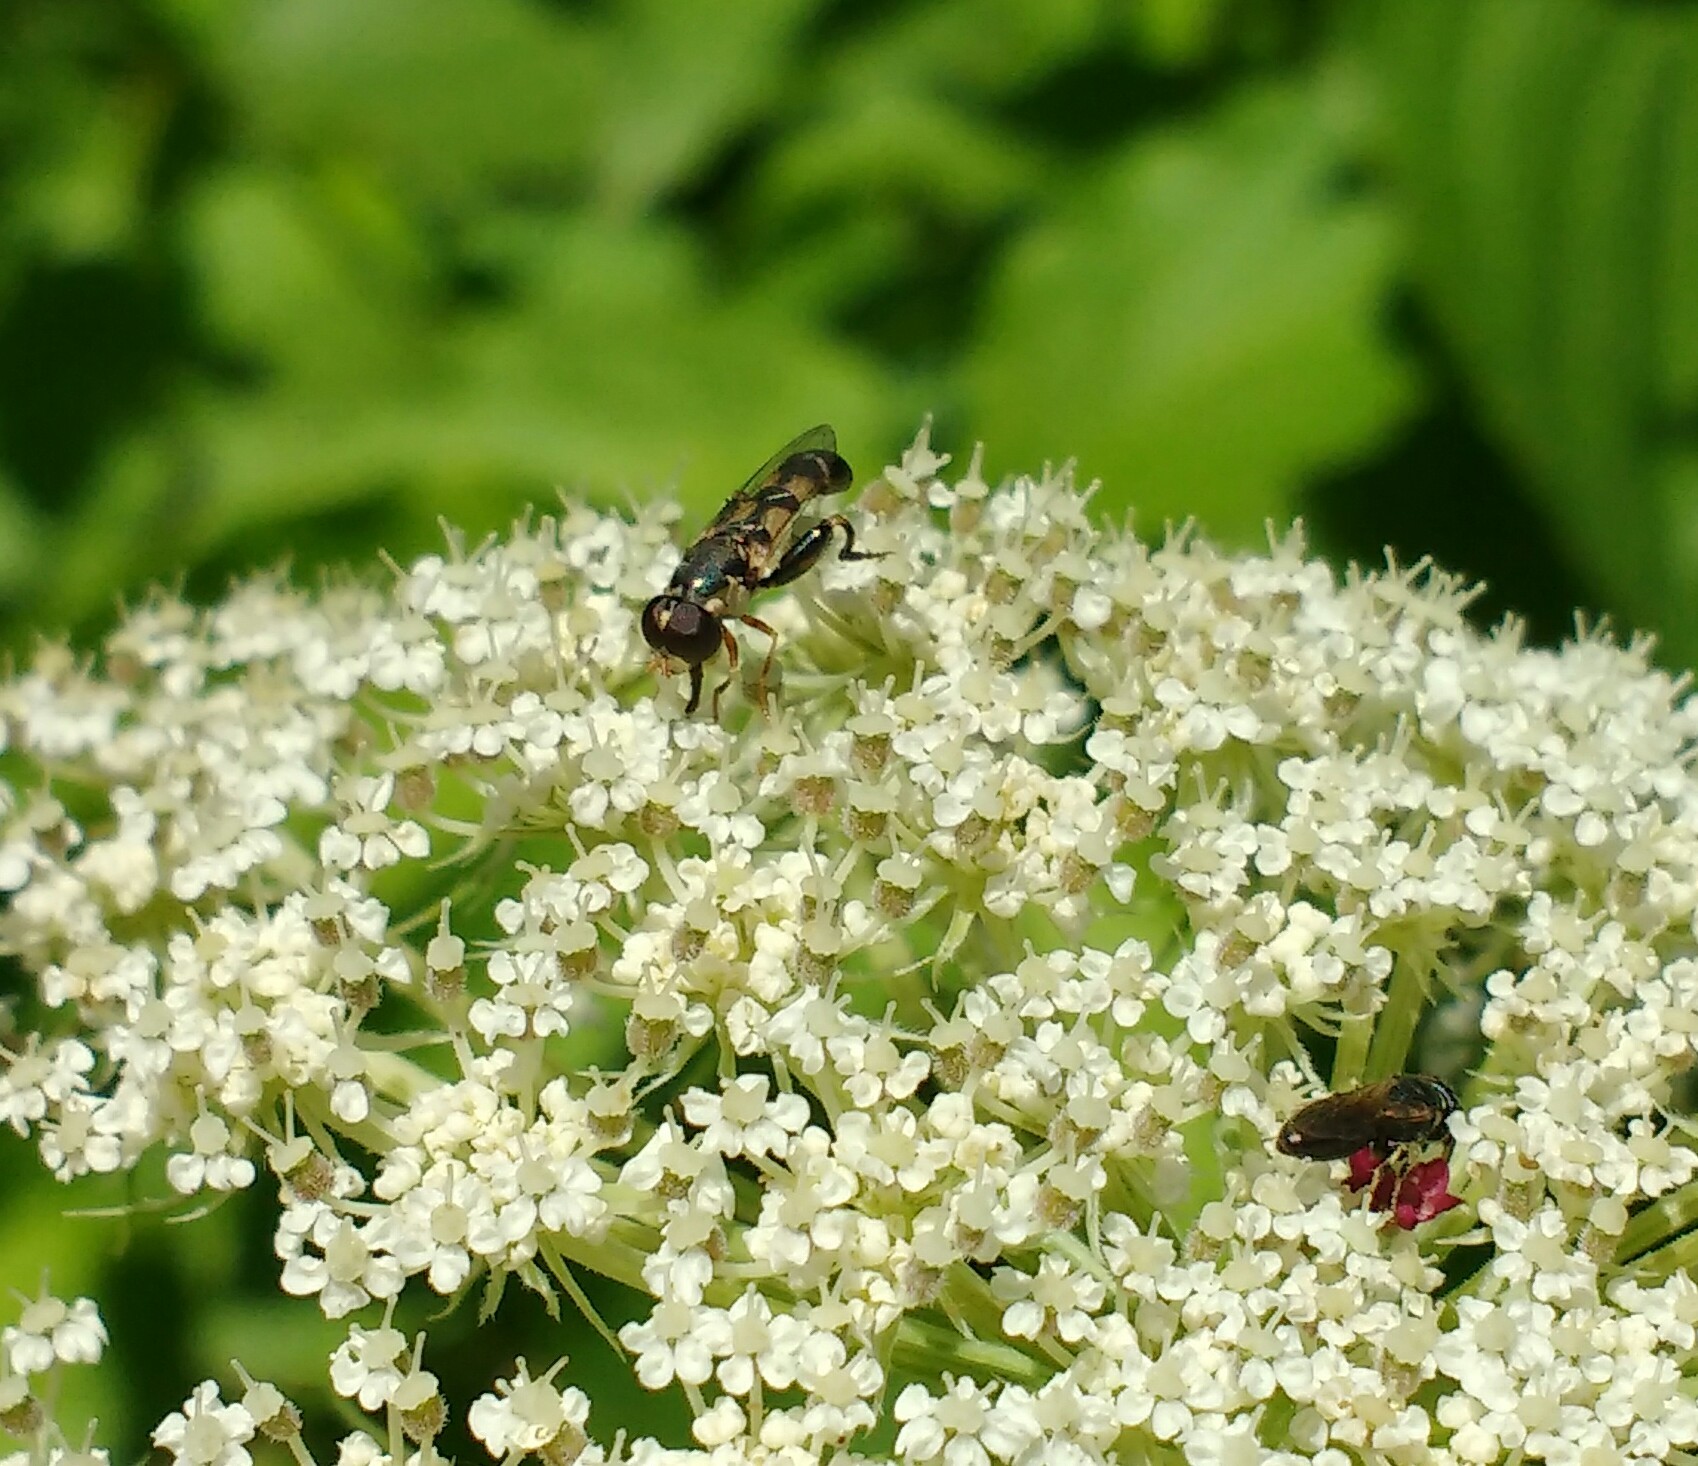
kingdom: Animalia
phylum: Arthropoda
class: Insecta
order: Diptera
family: Syrphidae
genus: Syritta
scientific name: Syritta pipiens
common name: Hover fly
